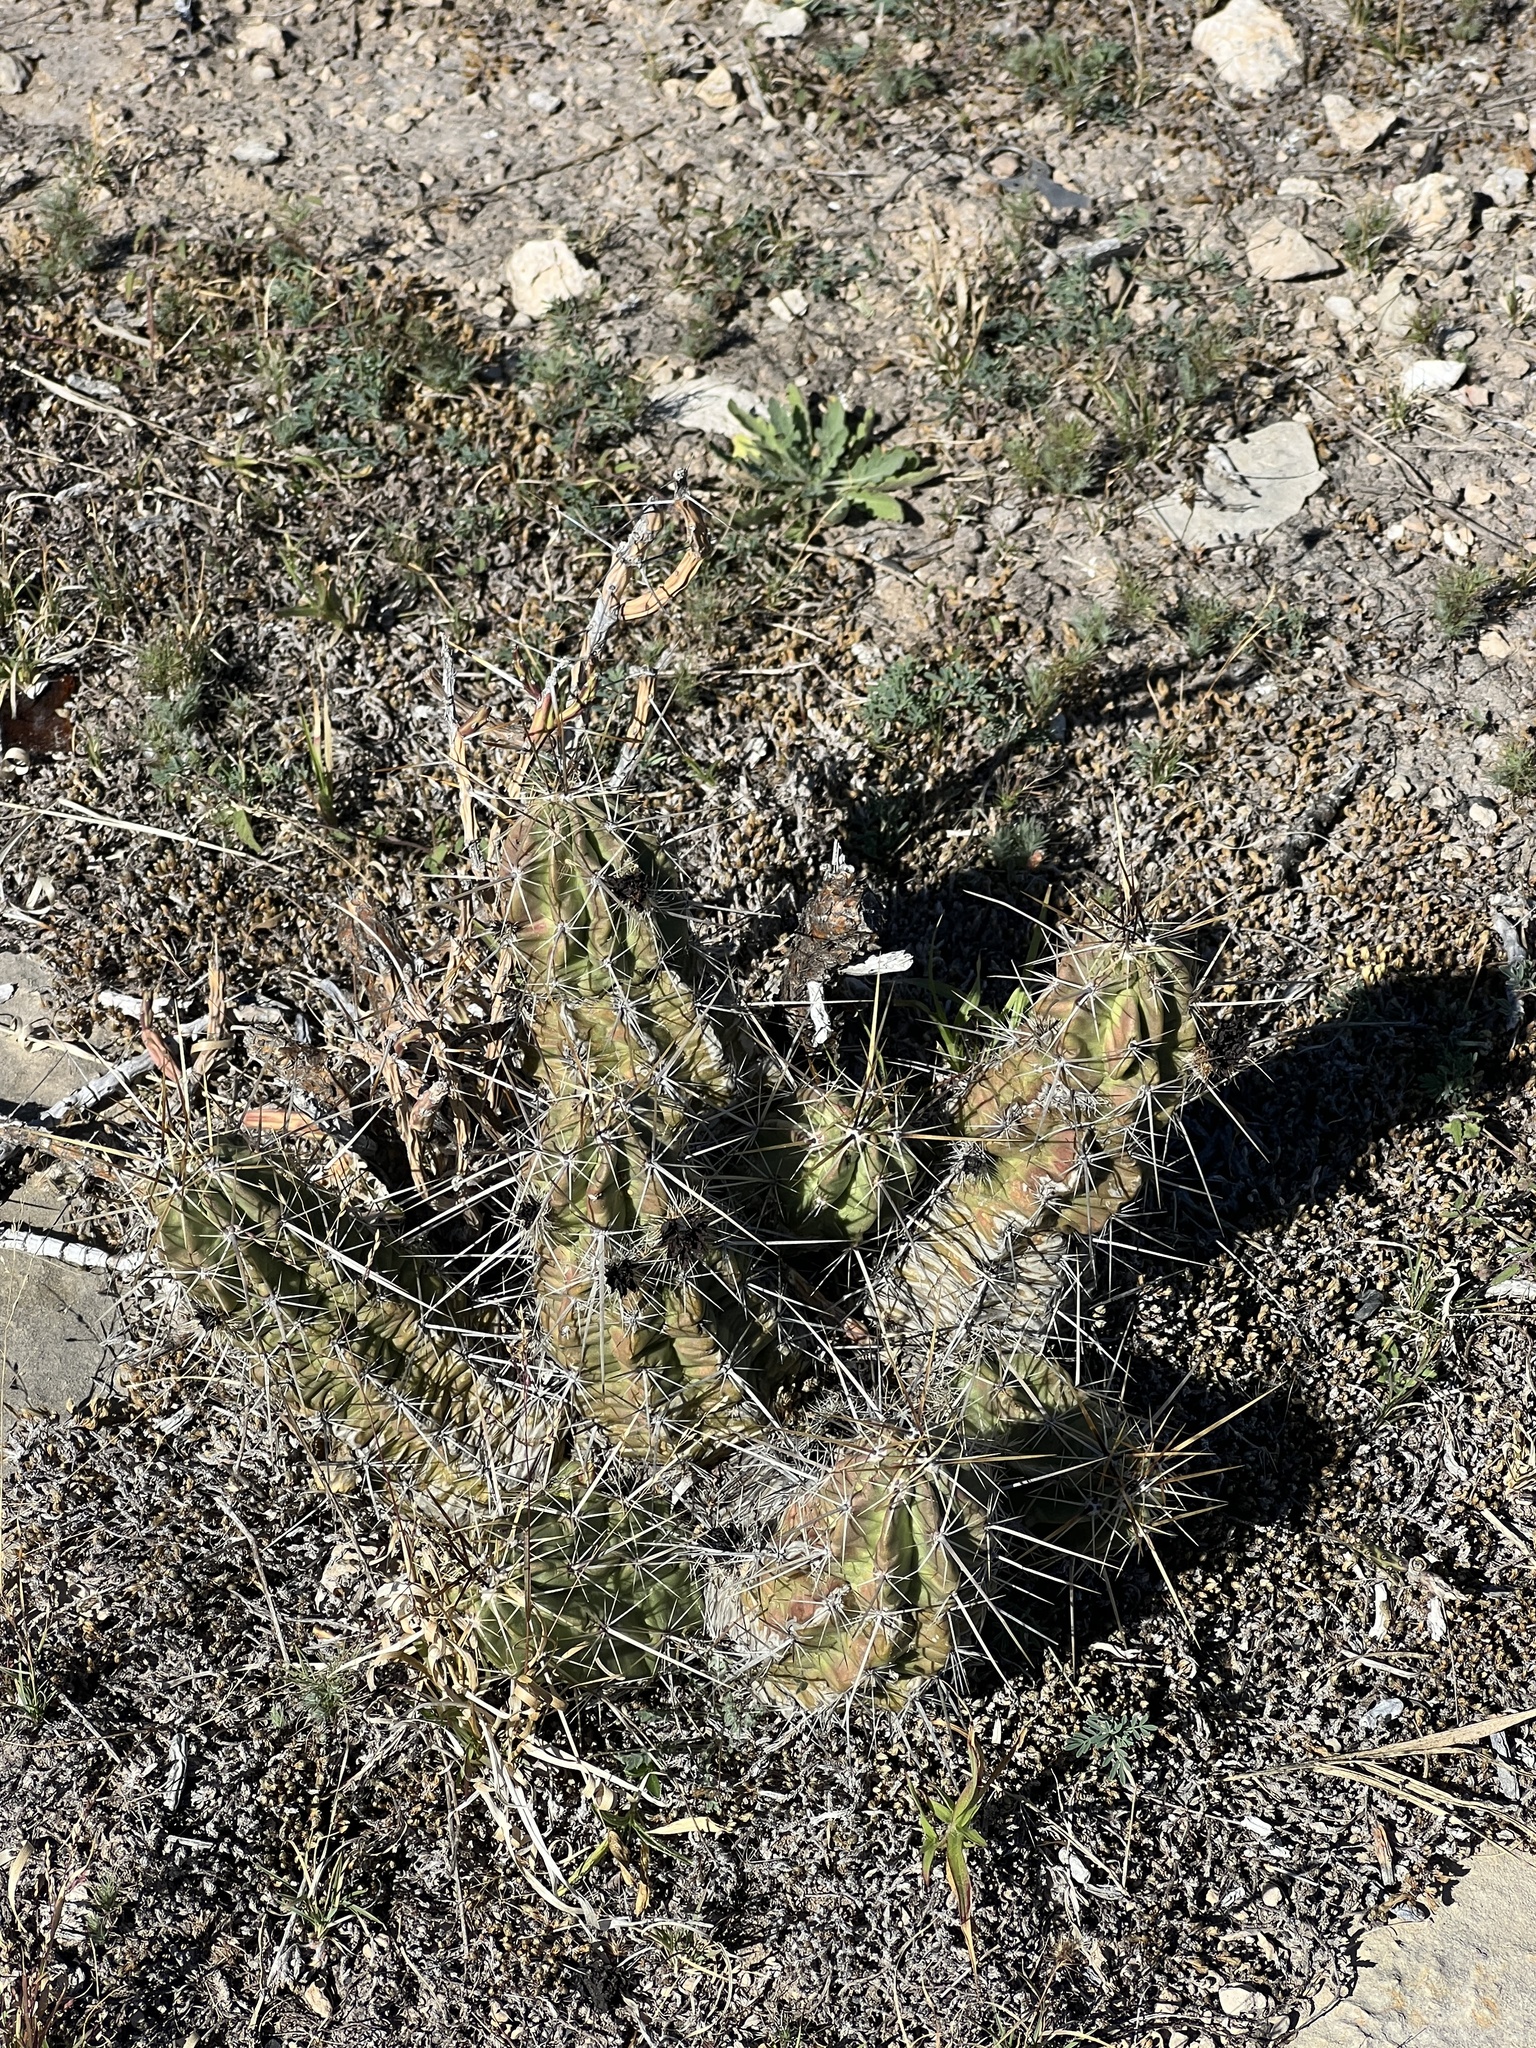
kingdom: Plantae
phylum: Tracheophyta
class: Magnoliopsida
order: Caryophyllales
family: Cactaceae
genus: Echinocereus
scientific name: Echinocereus enneacanthus
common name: Pitaya
